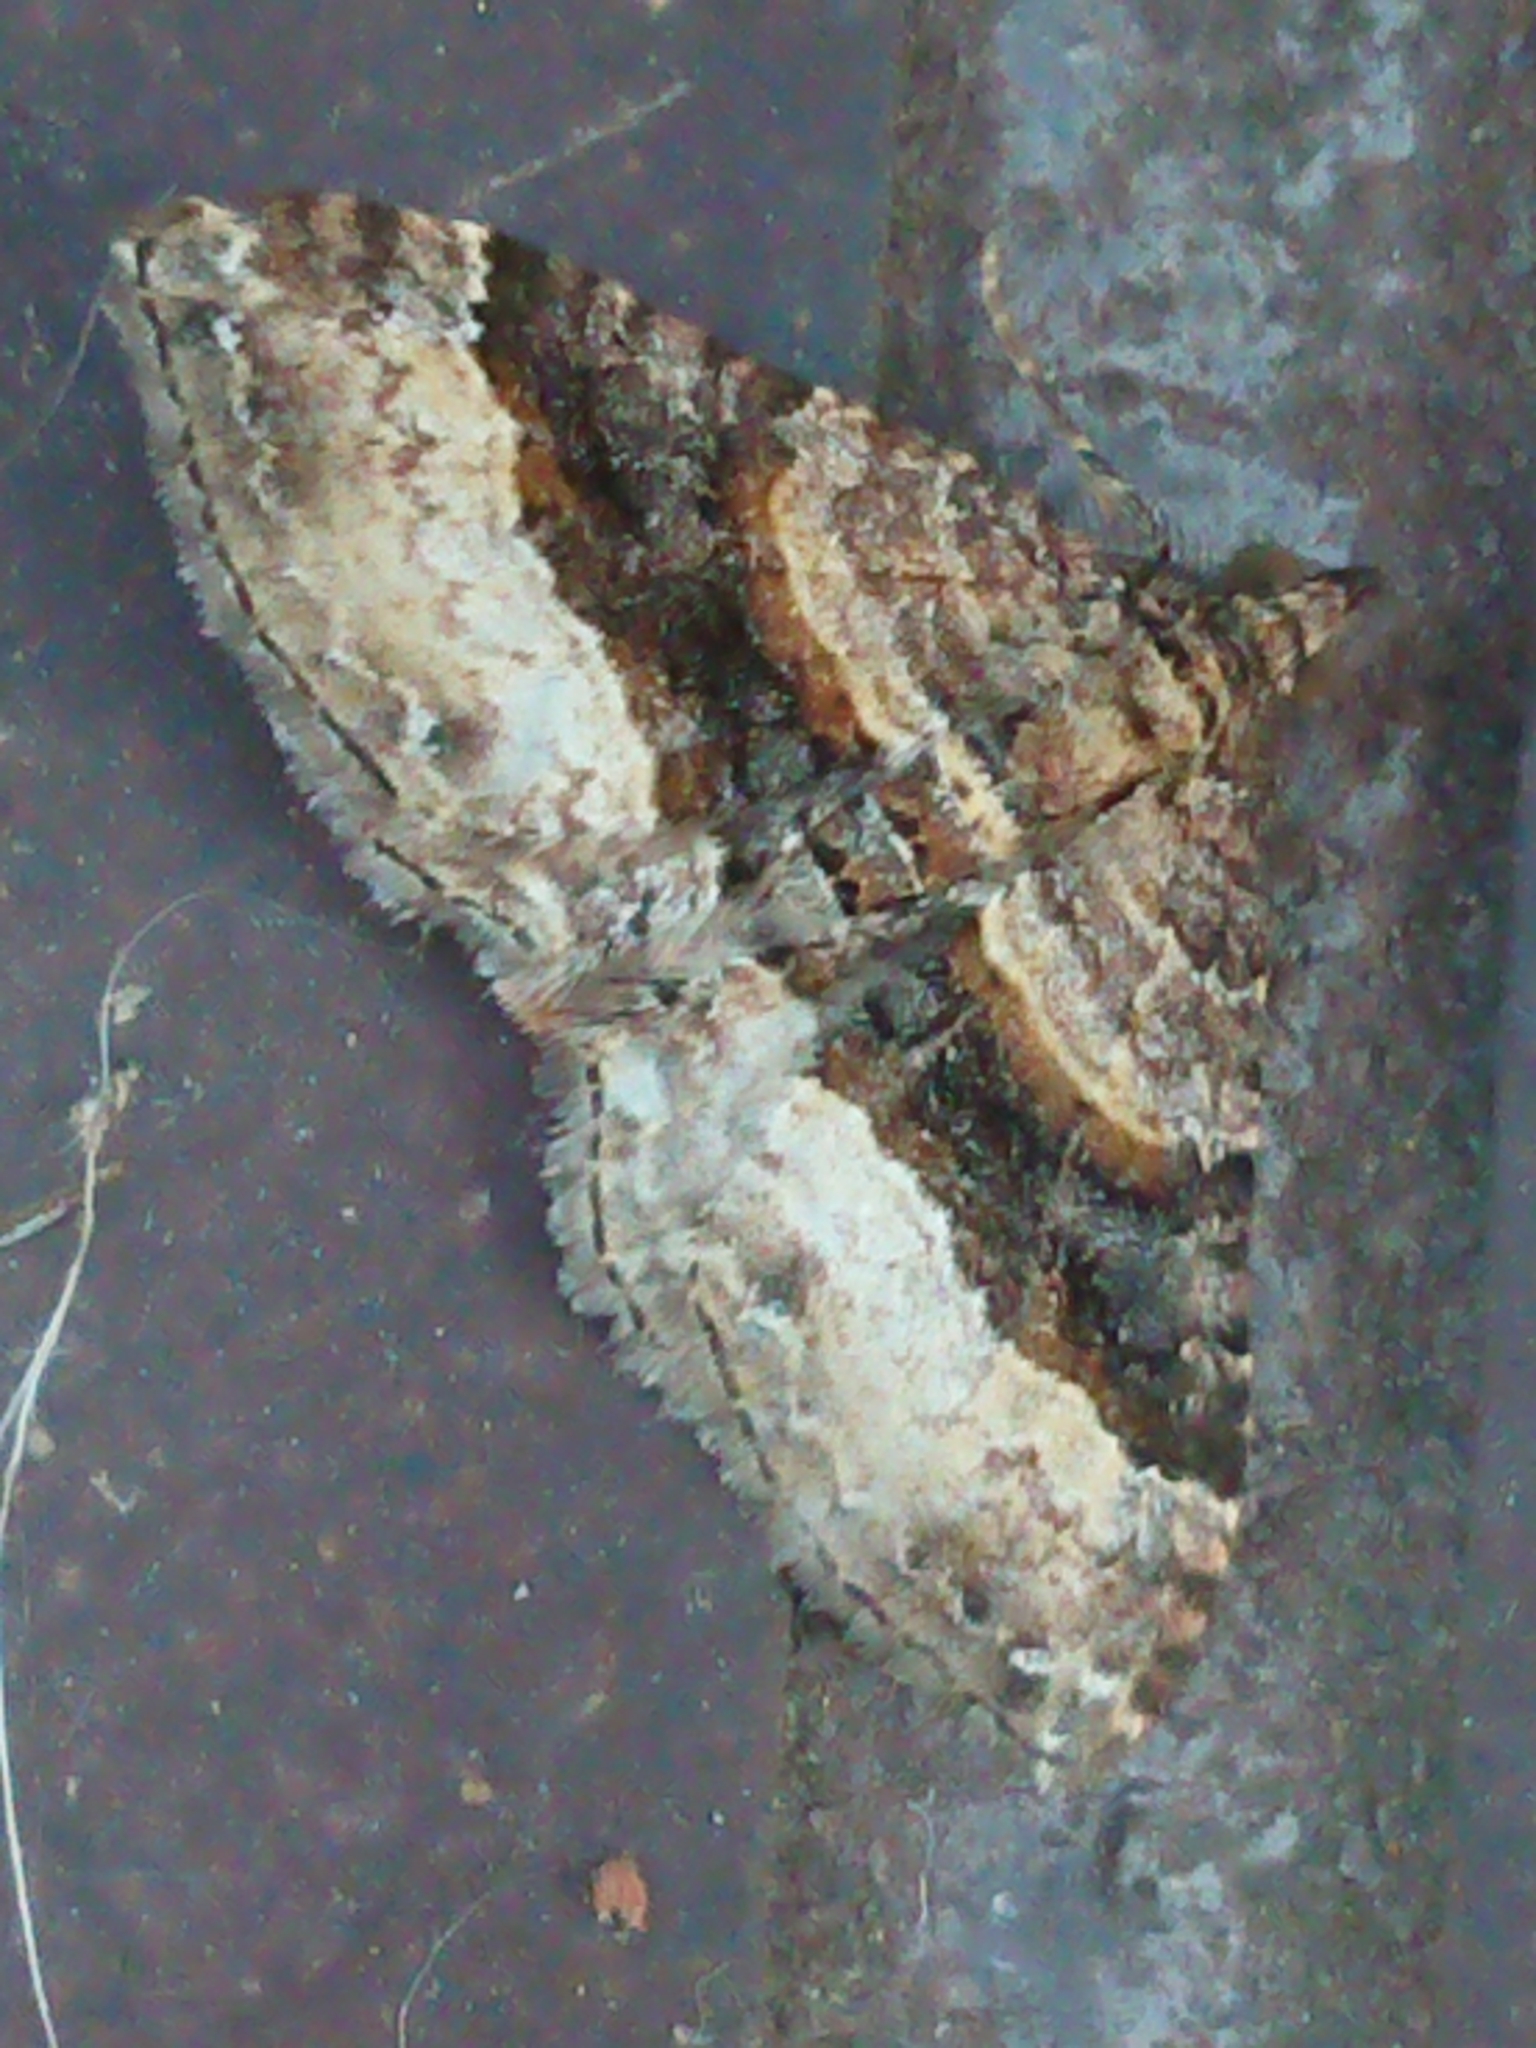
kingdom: Animalia
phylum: Arthropoda
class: Insecta
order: Lepidoptera
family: Geometridae
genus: Epyaxa
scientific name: Epyaxa lucidata
